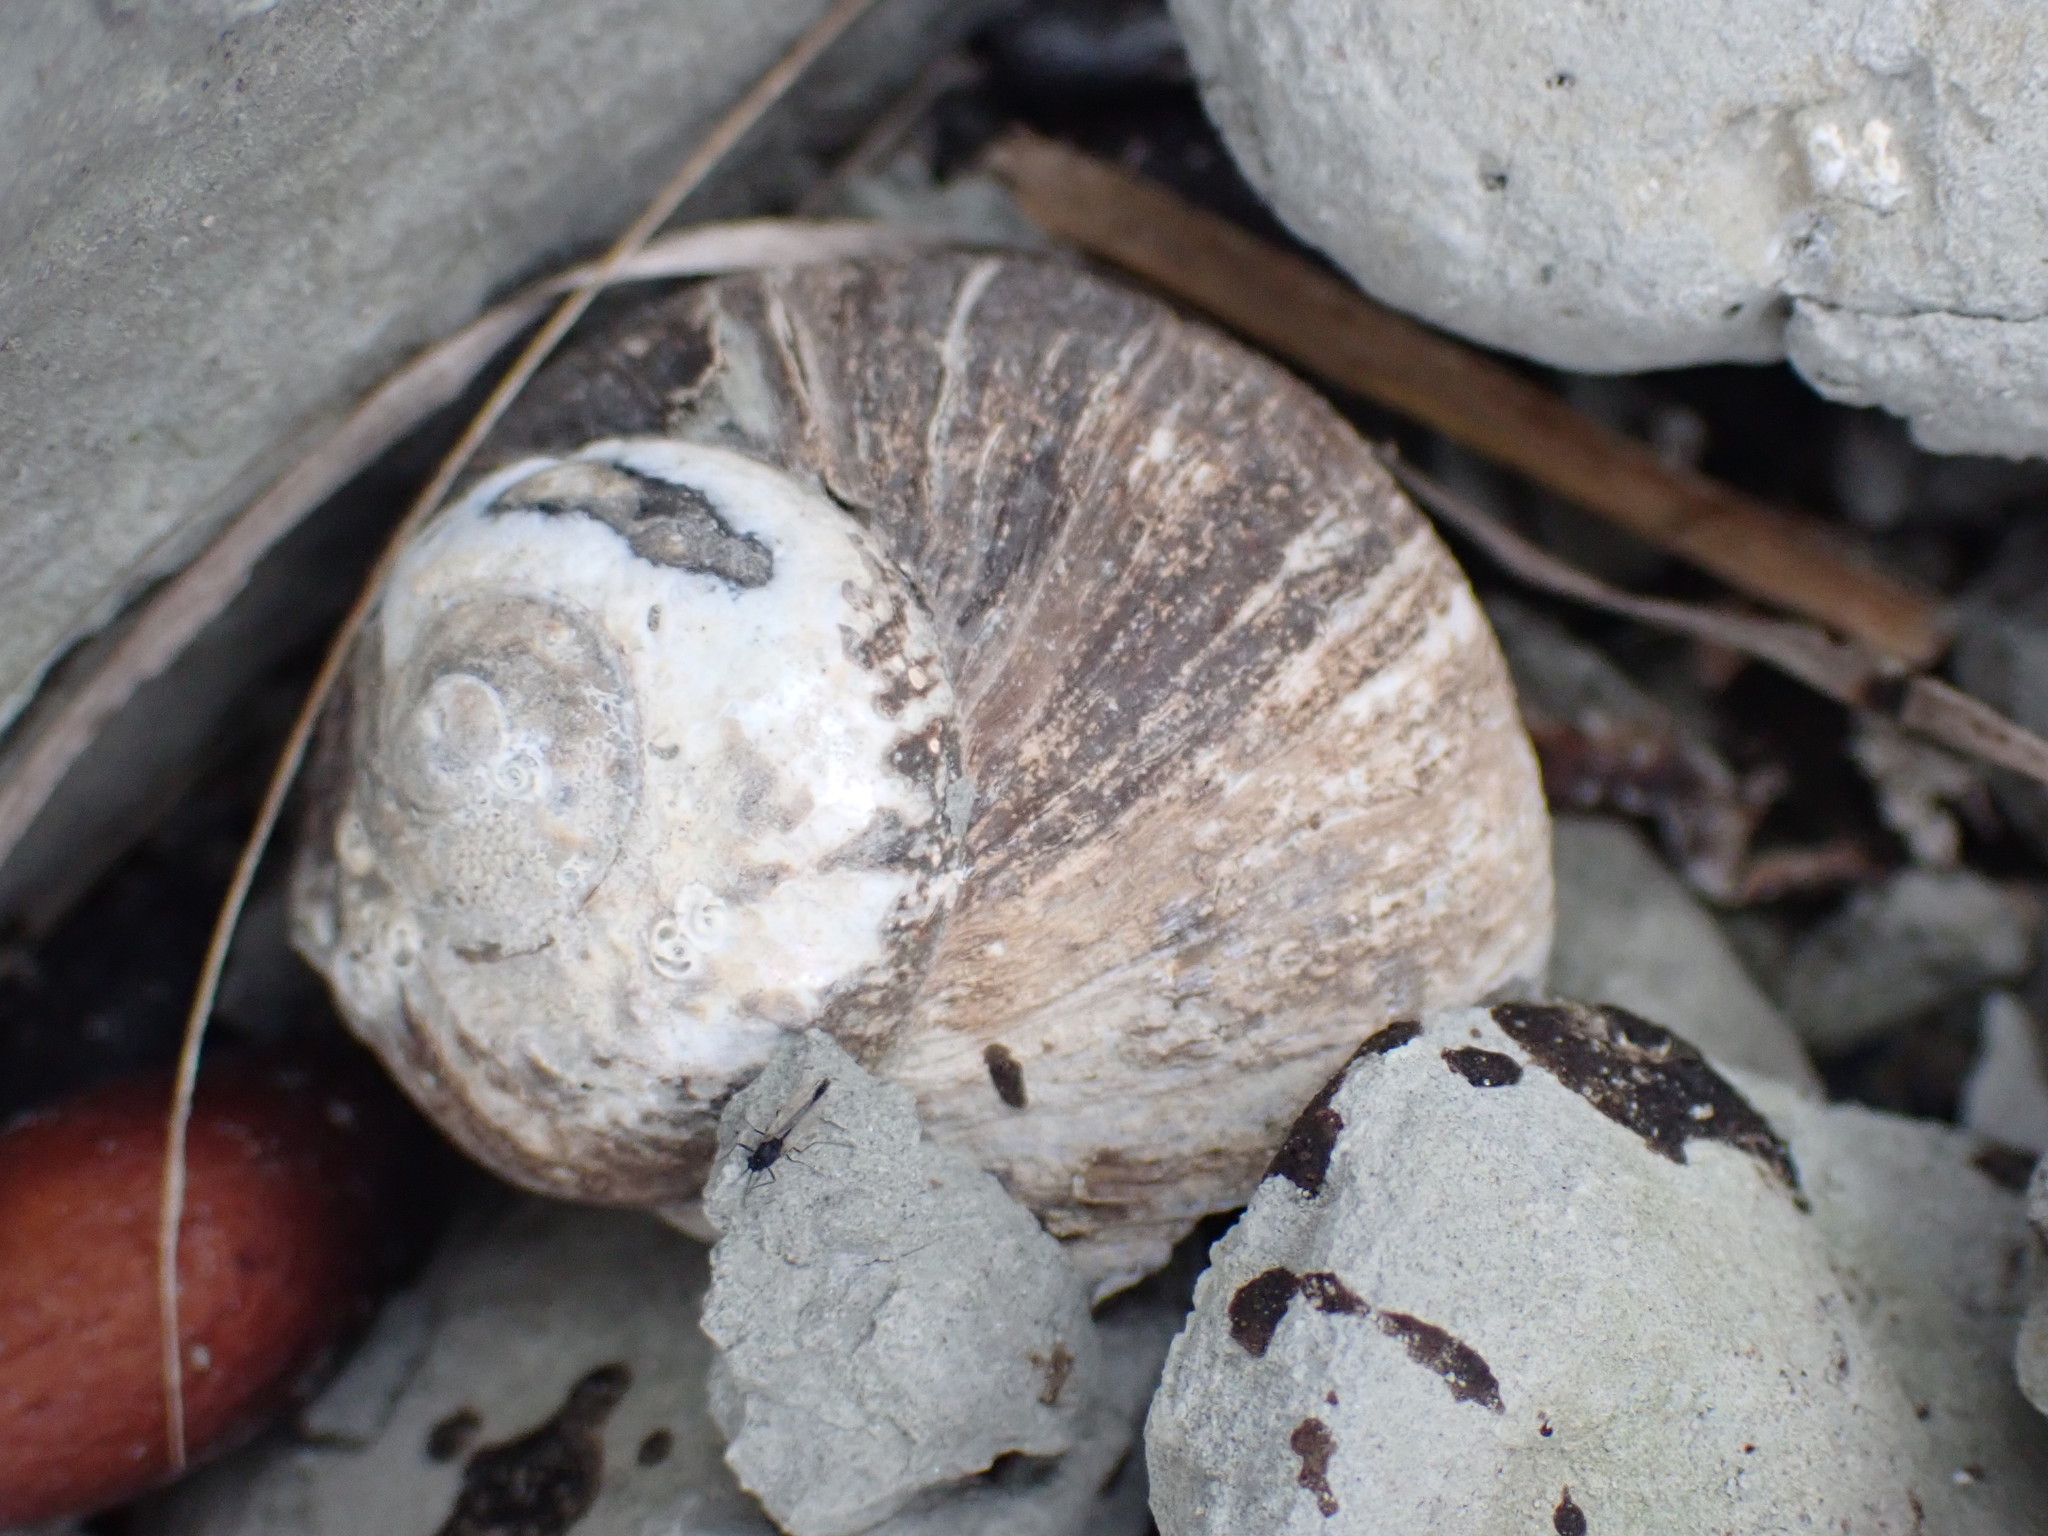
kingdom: Animalia
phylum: Mollusca
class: Gastropoda
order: Trochida
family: Turbinidae
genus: Lunella
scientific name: Lunella smaragda
